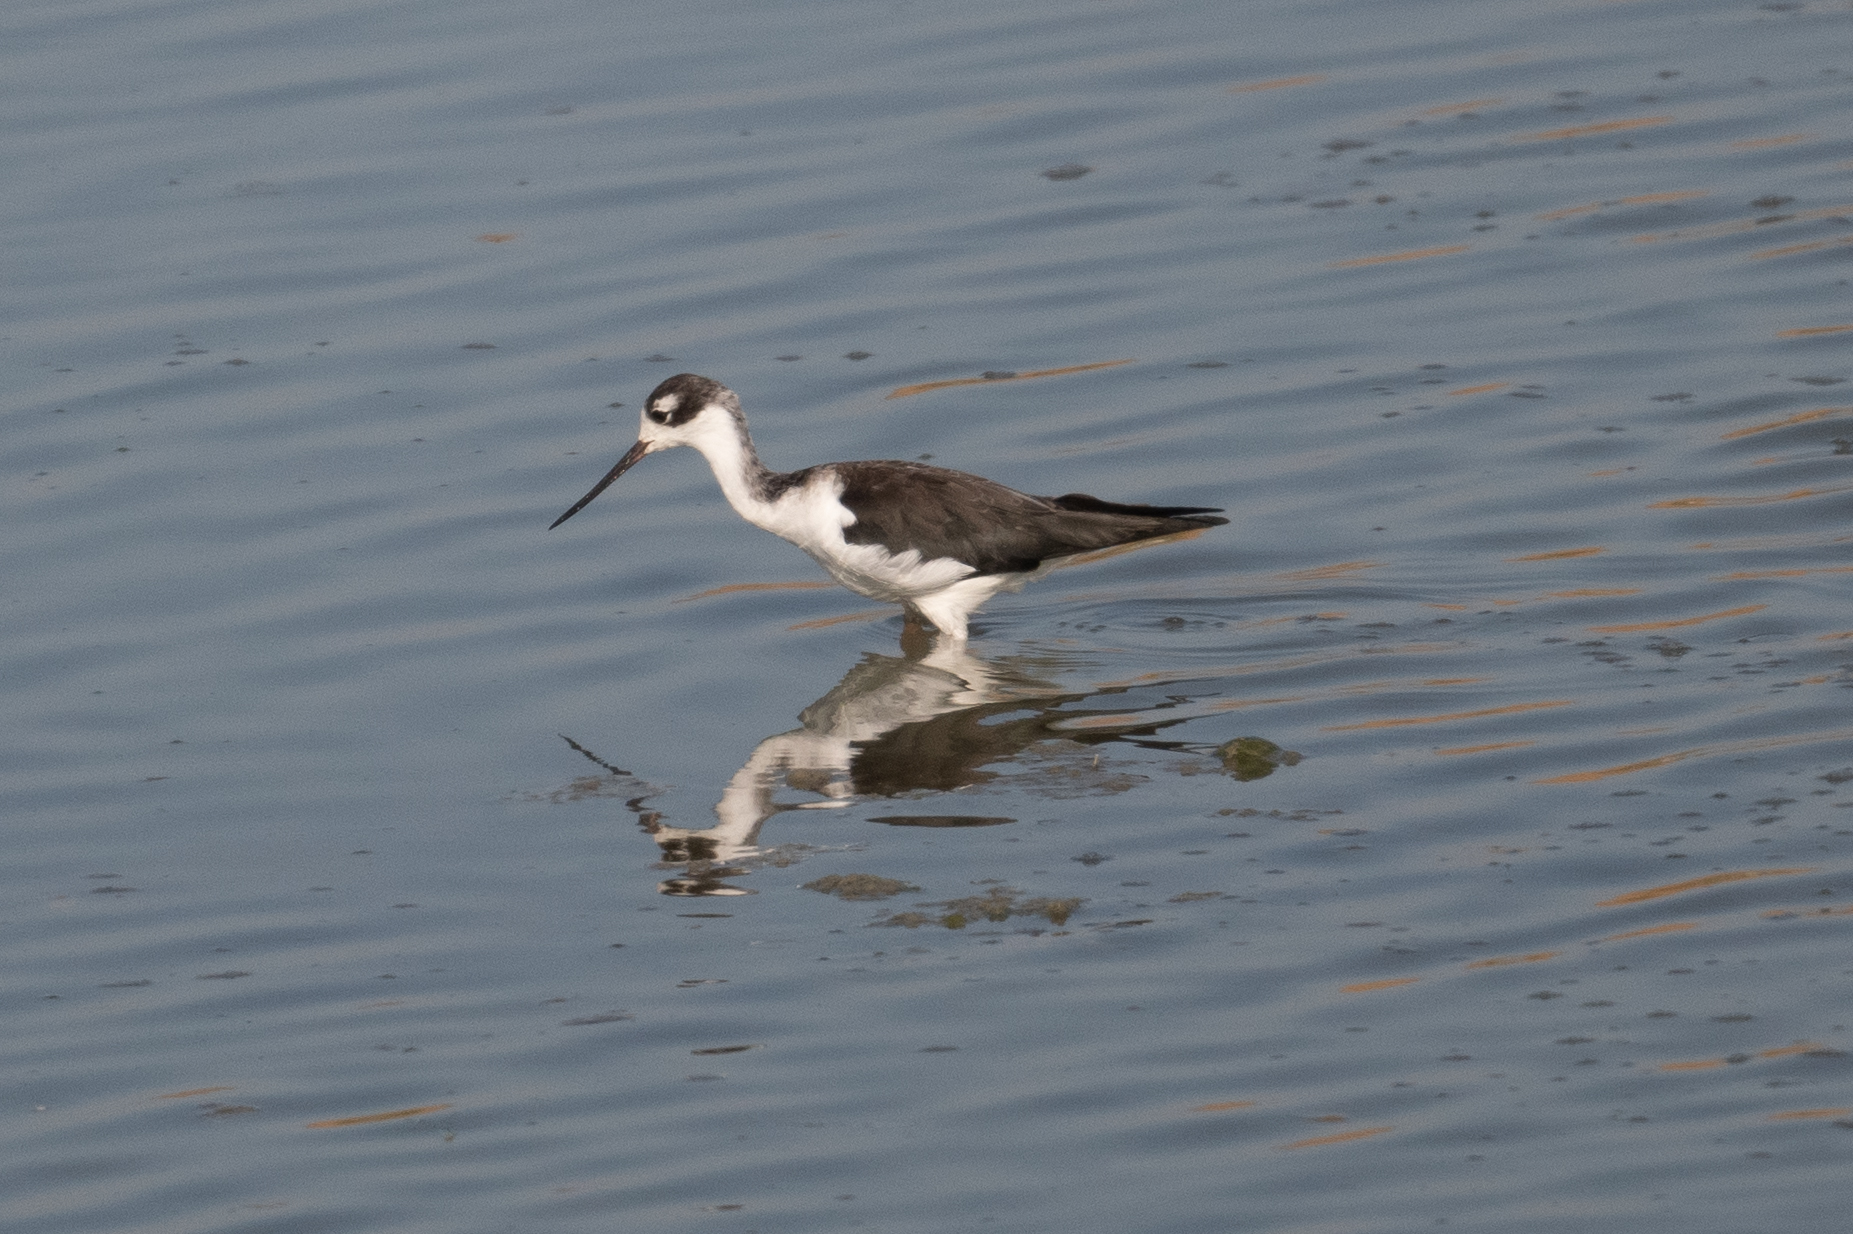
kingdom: Animalia
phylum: Chordata
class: Aves
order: Charadriiformes
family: Recurvirostridae
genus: Himantopus
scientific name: Himantopus mexicanus
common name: Black-necked stilt
